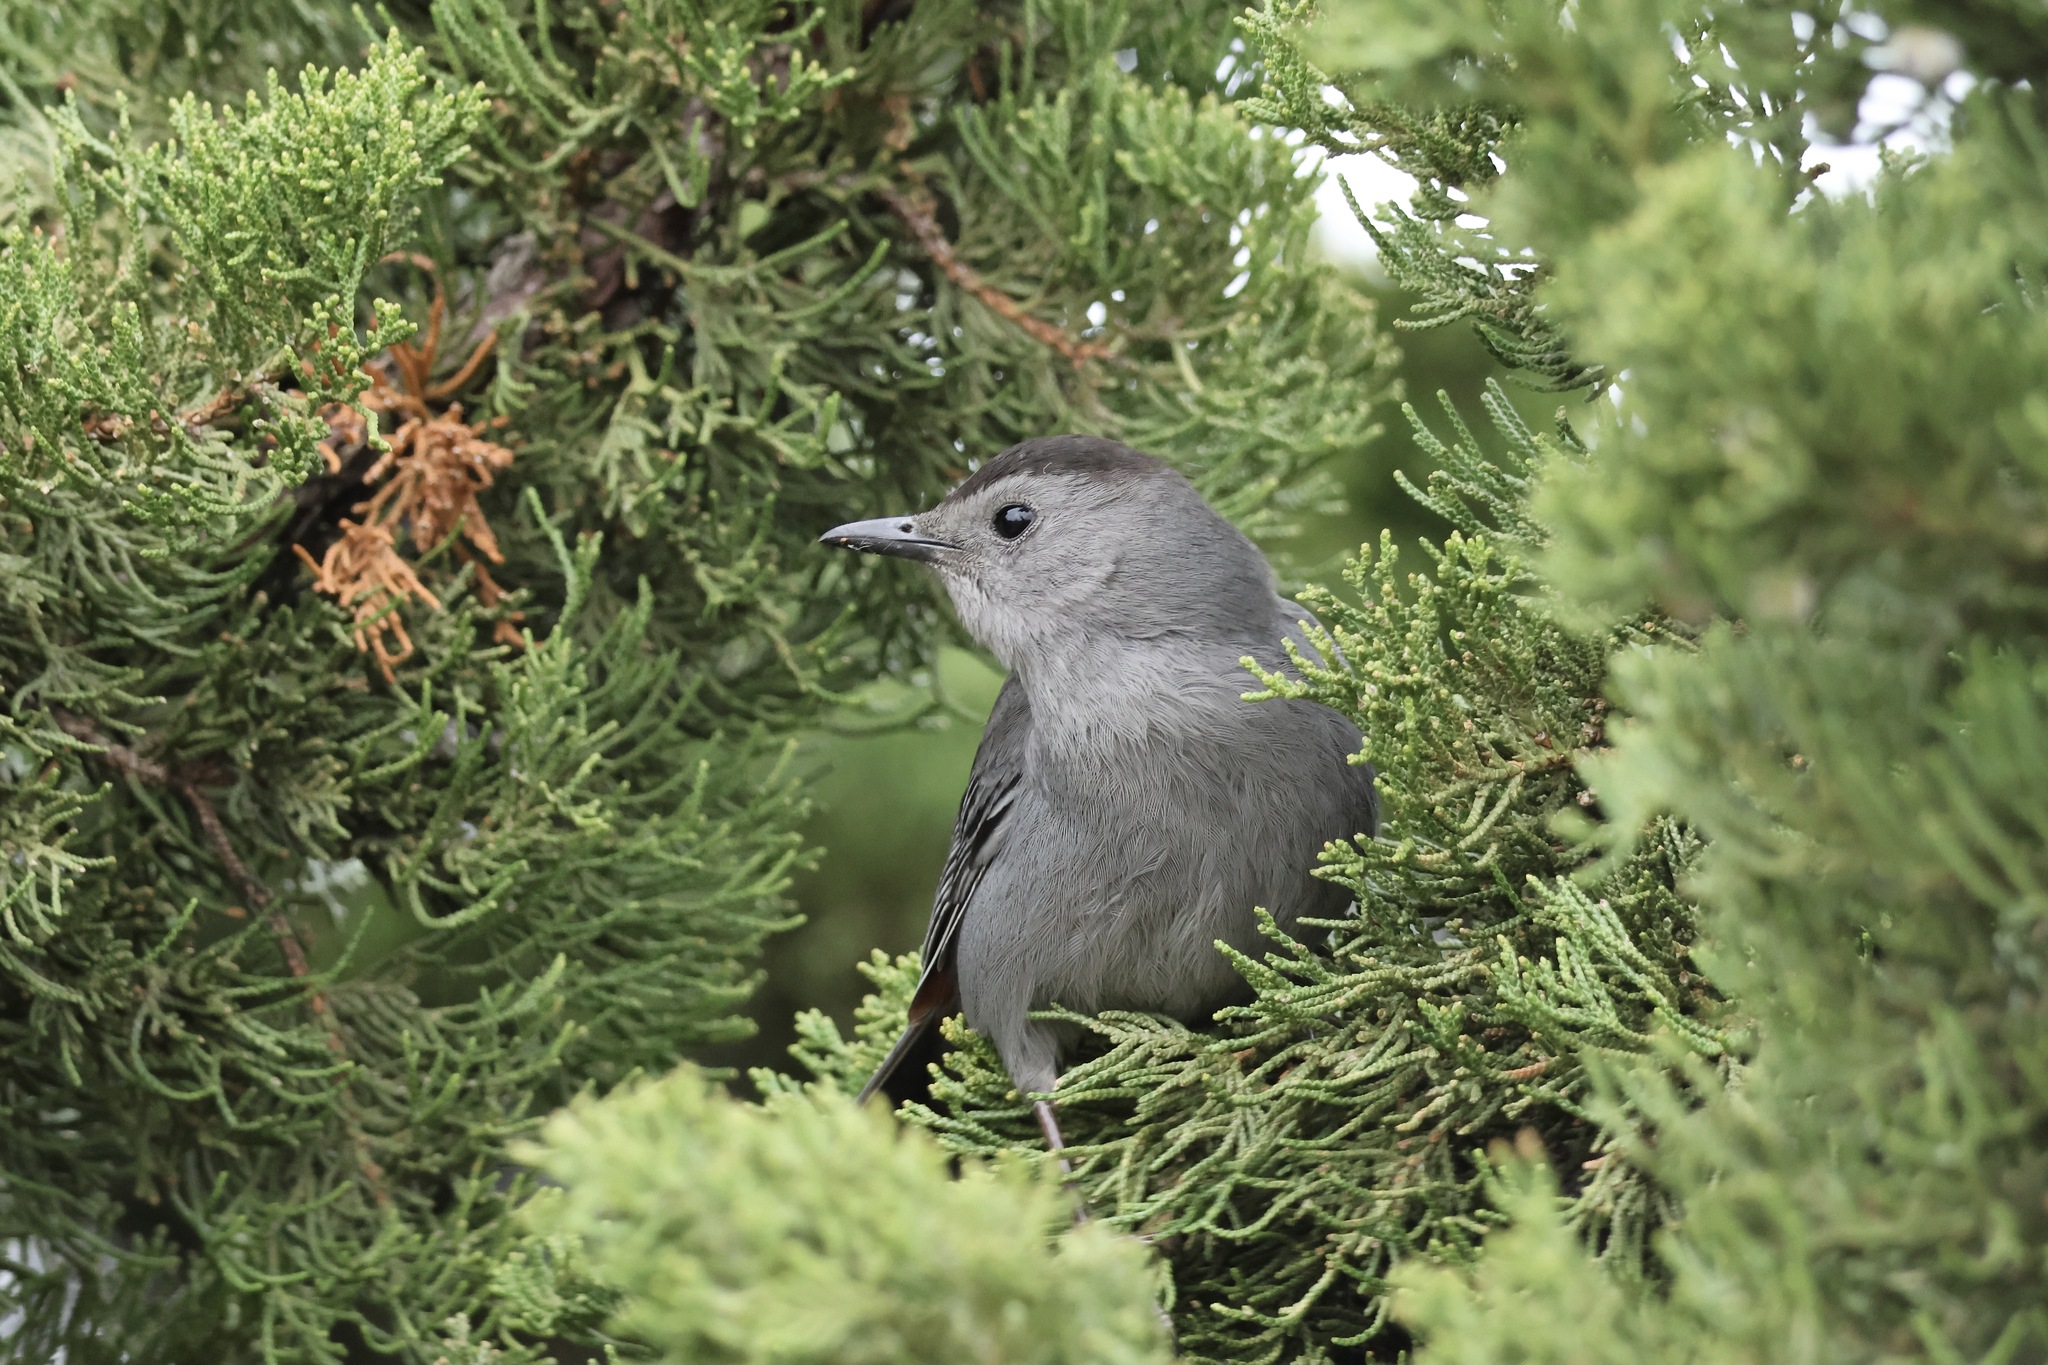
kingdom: Animalia
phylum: Chordata
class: Aves
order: Passeriformes
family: Mimidae
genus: Dumetella
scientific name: Dumetella carolinensis
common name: Gray catbird
